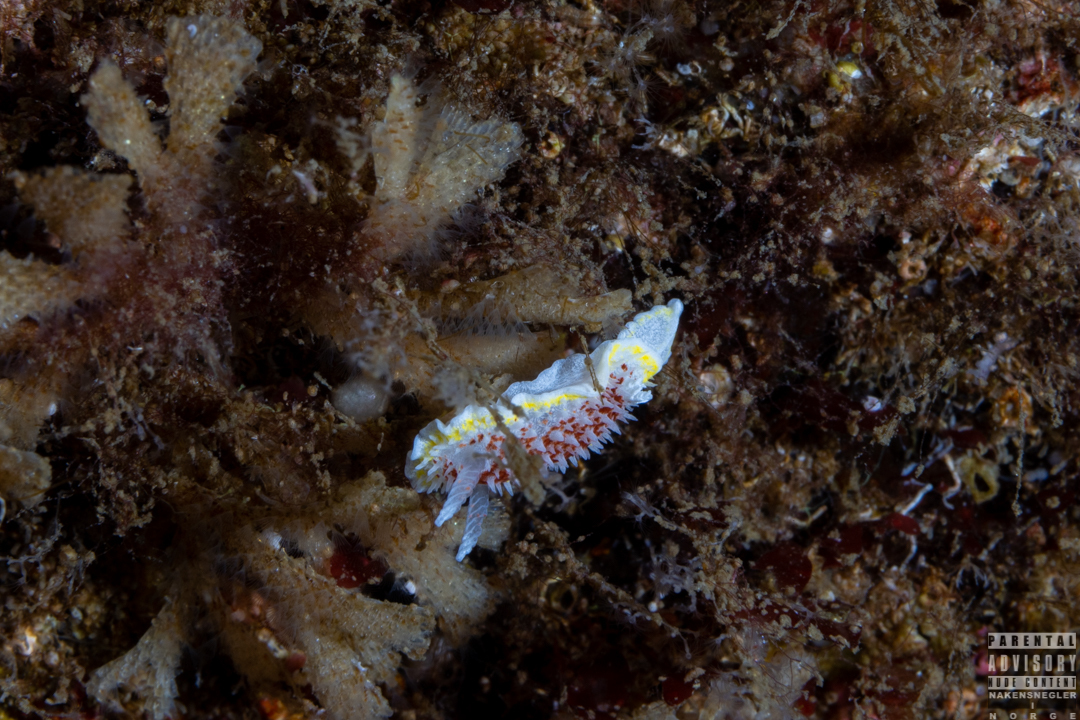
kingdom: Animalia
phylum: Mollusca
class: Gastropoda
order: Nudibranchia
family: Calycidorididae
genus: Diaphorodoris
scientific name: Diaphorodoris luteocincta
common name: Fried egg nudibranch
